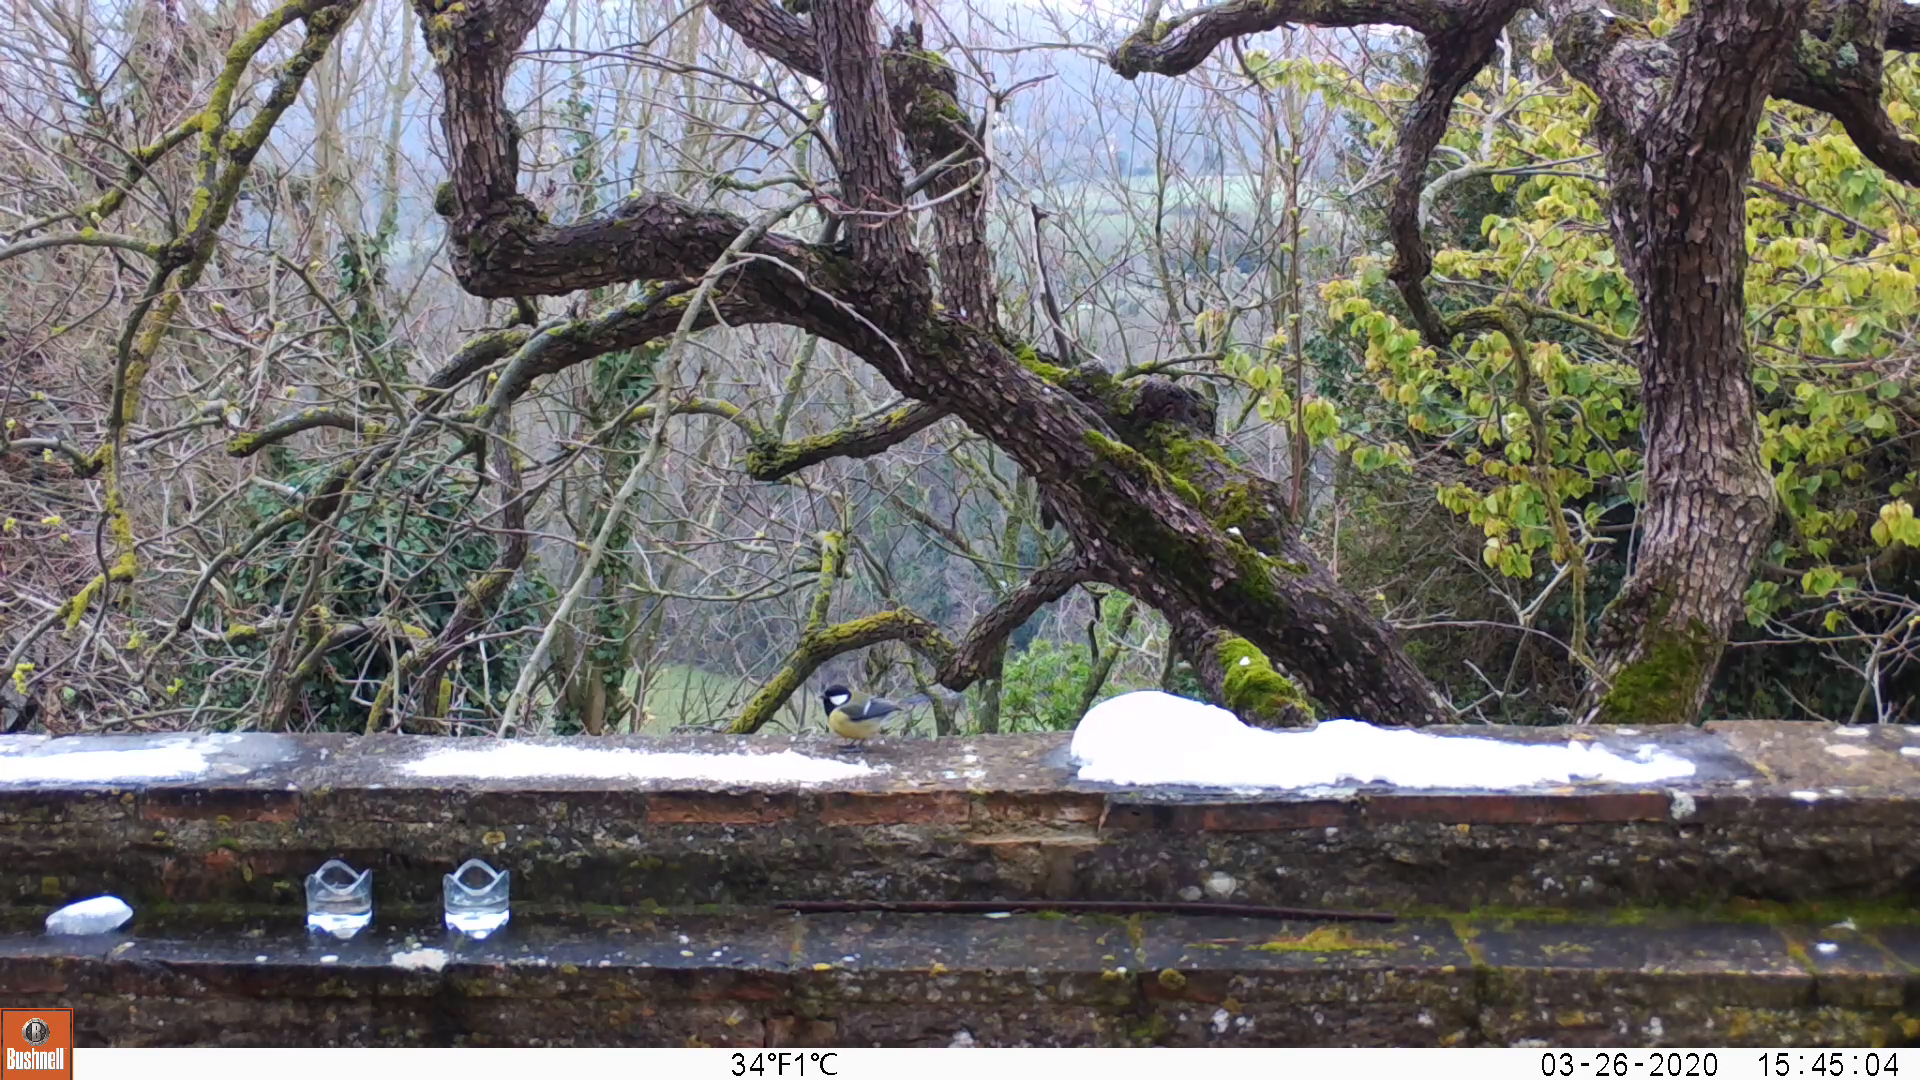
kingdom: Animalia
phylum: Chordata
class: Aves
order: Passeriformes
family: Paridae
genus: Parus
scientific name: Parus major
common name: Great tit
